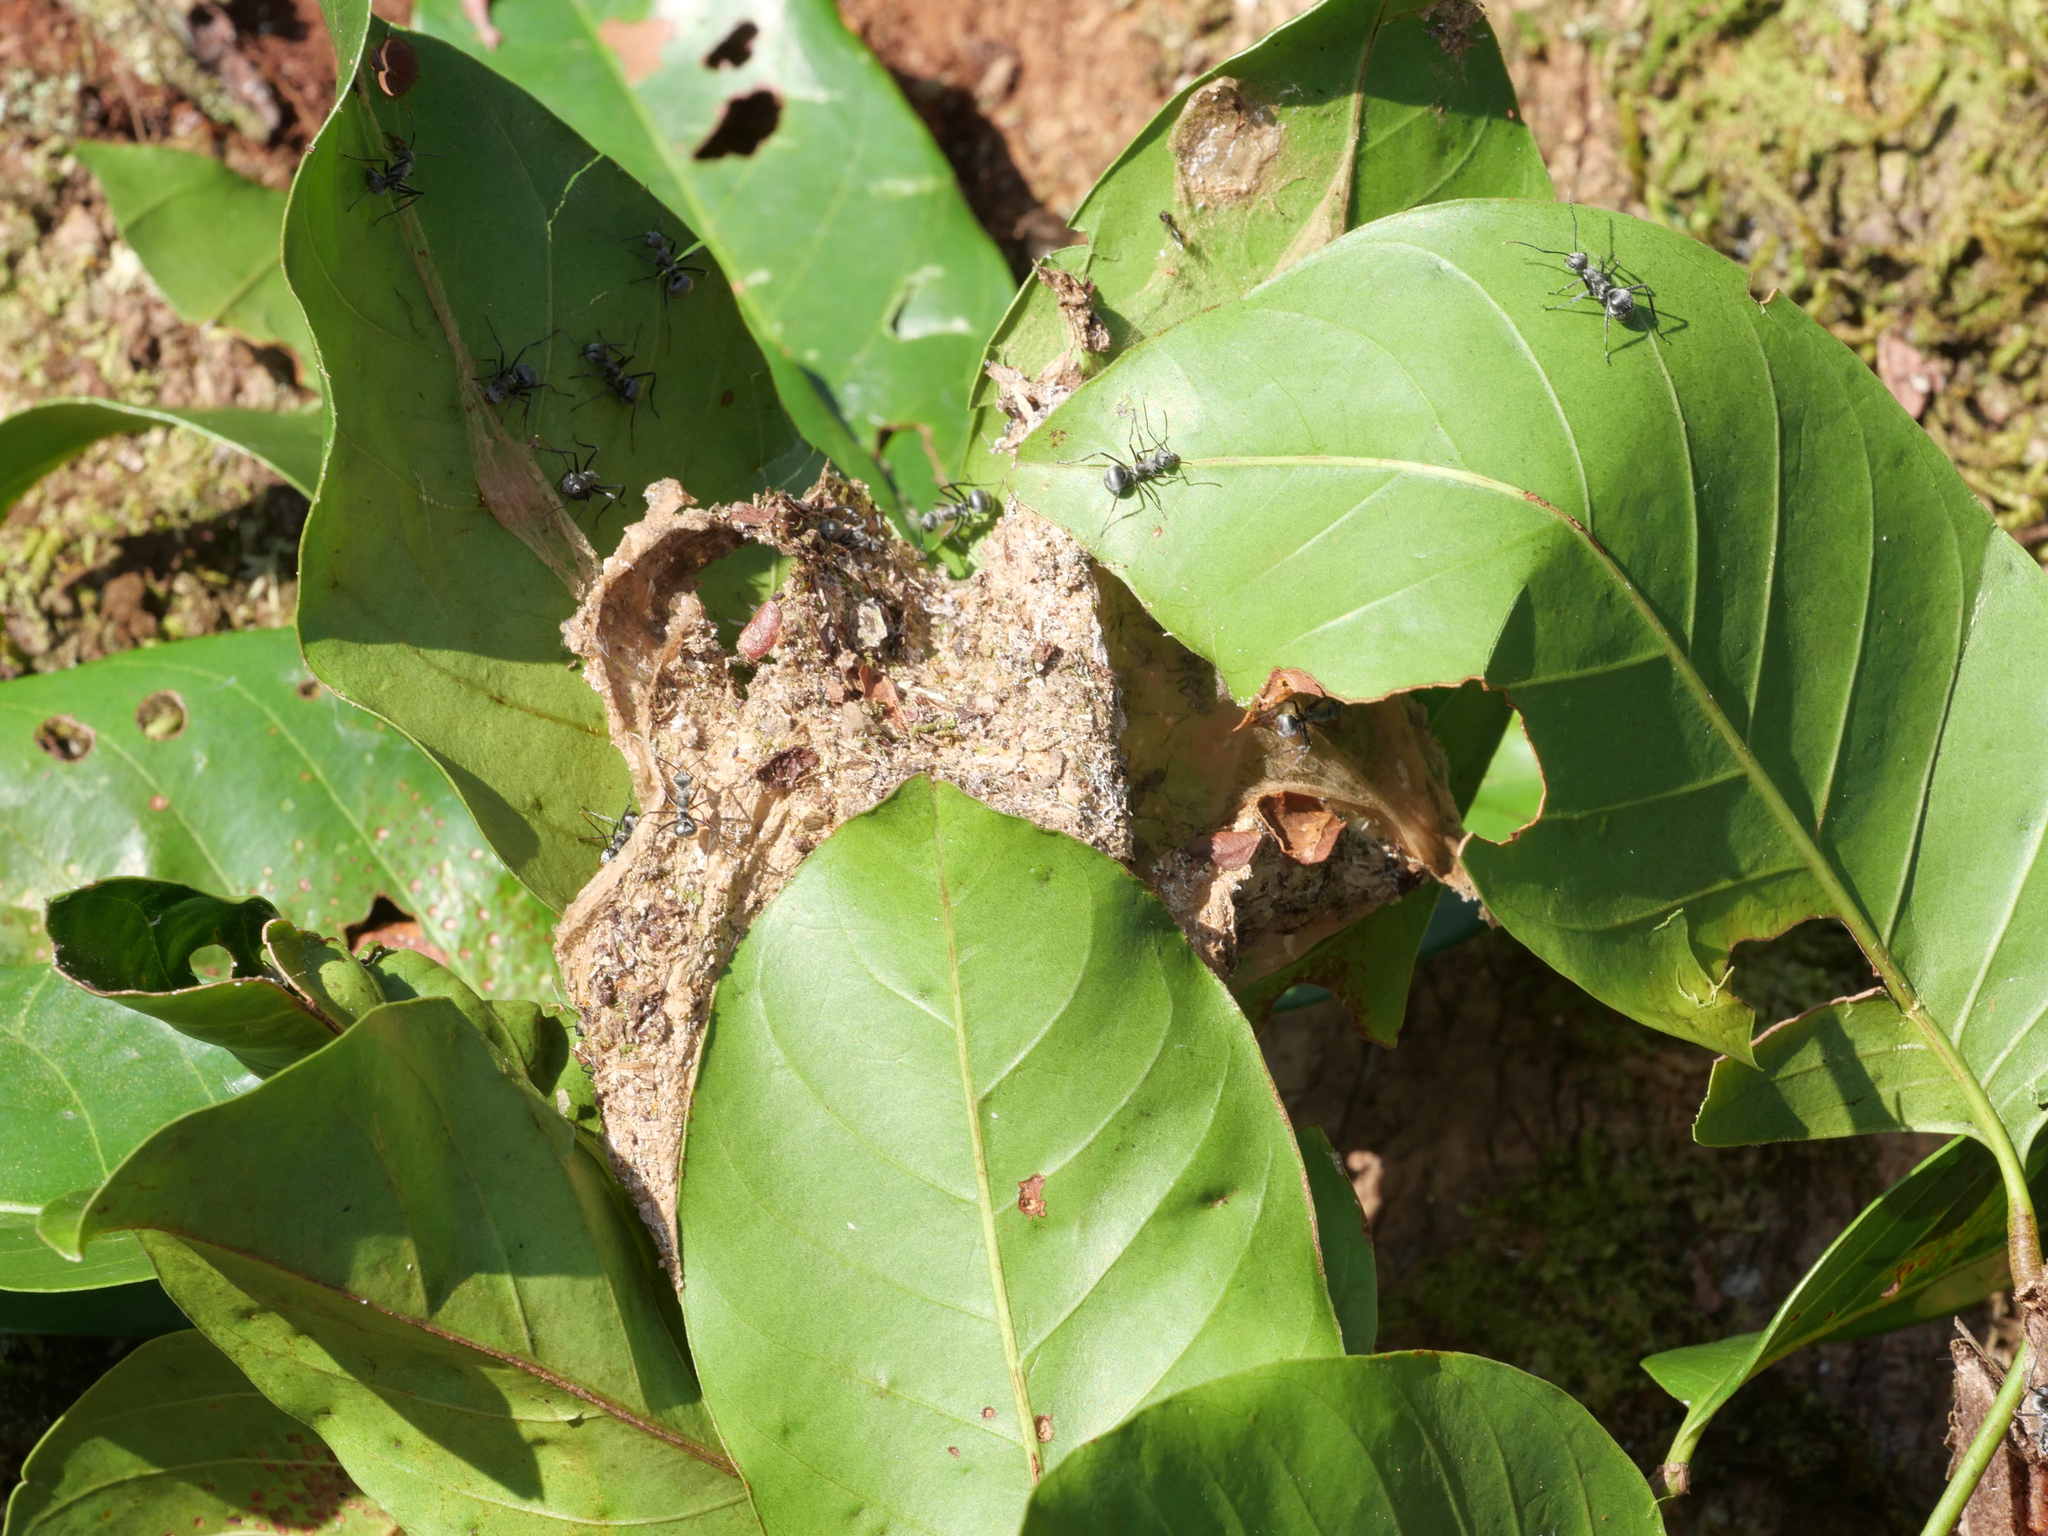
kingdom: Animalia
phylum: Arthropoda
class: Insecta
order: Hymenoptera
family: Formicidae
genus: Polyrhachis
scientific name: Polyrhachis nigriceps
